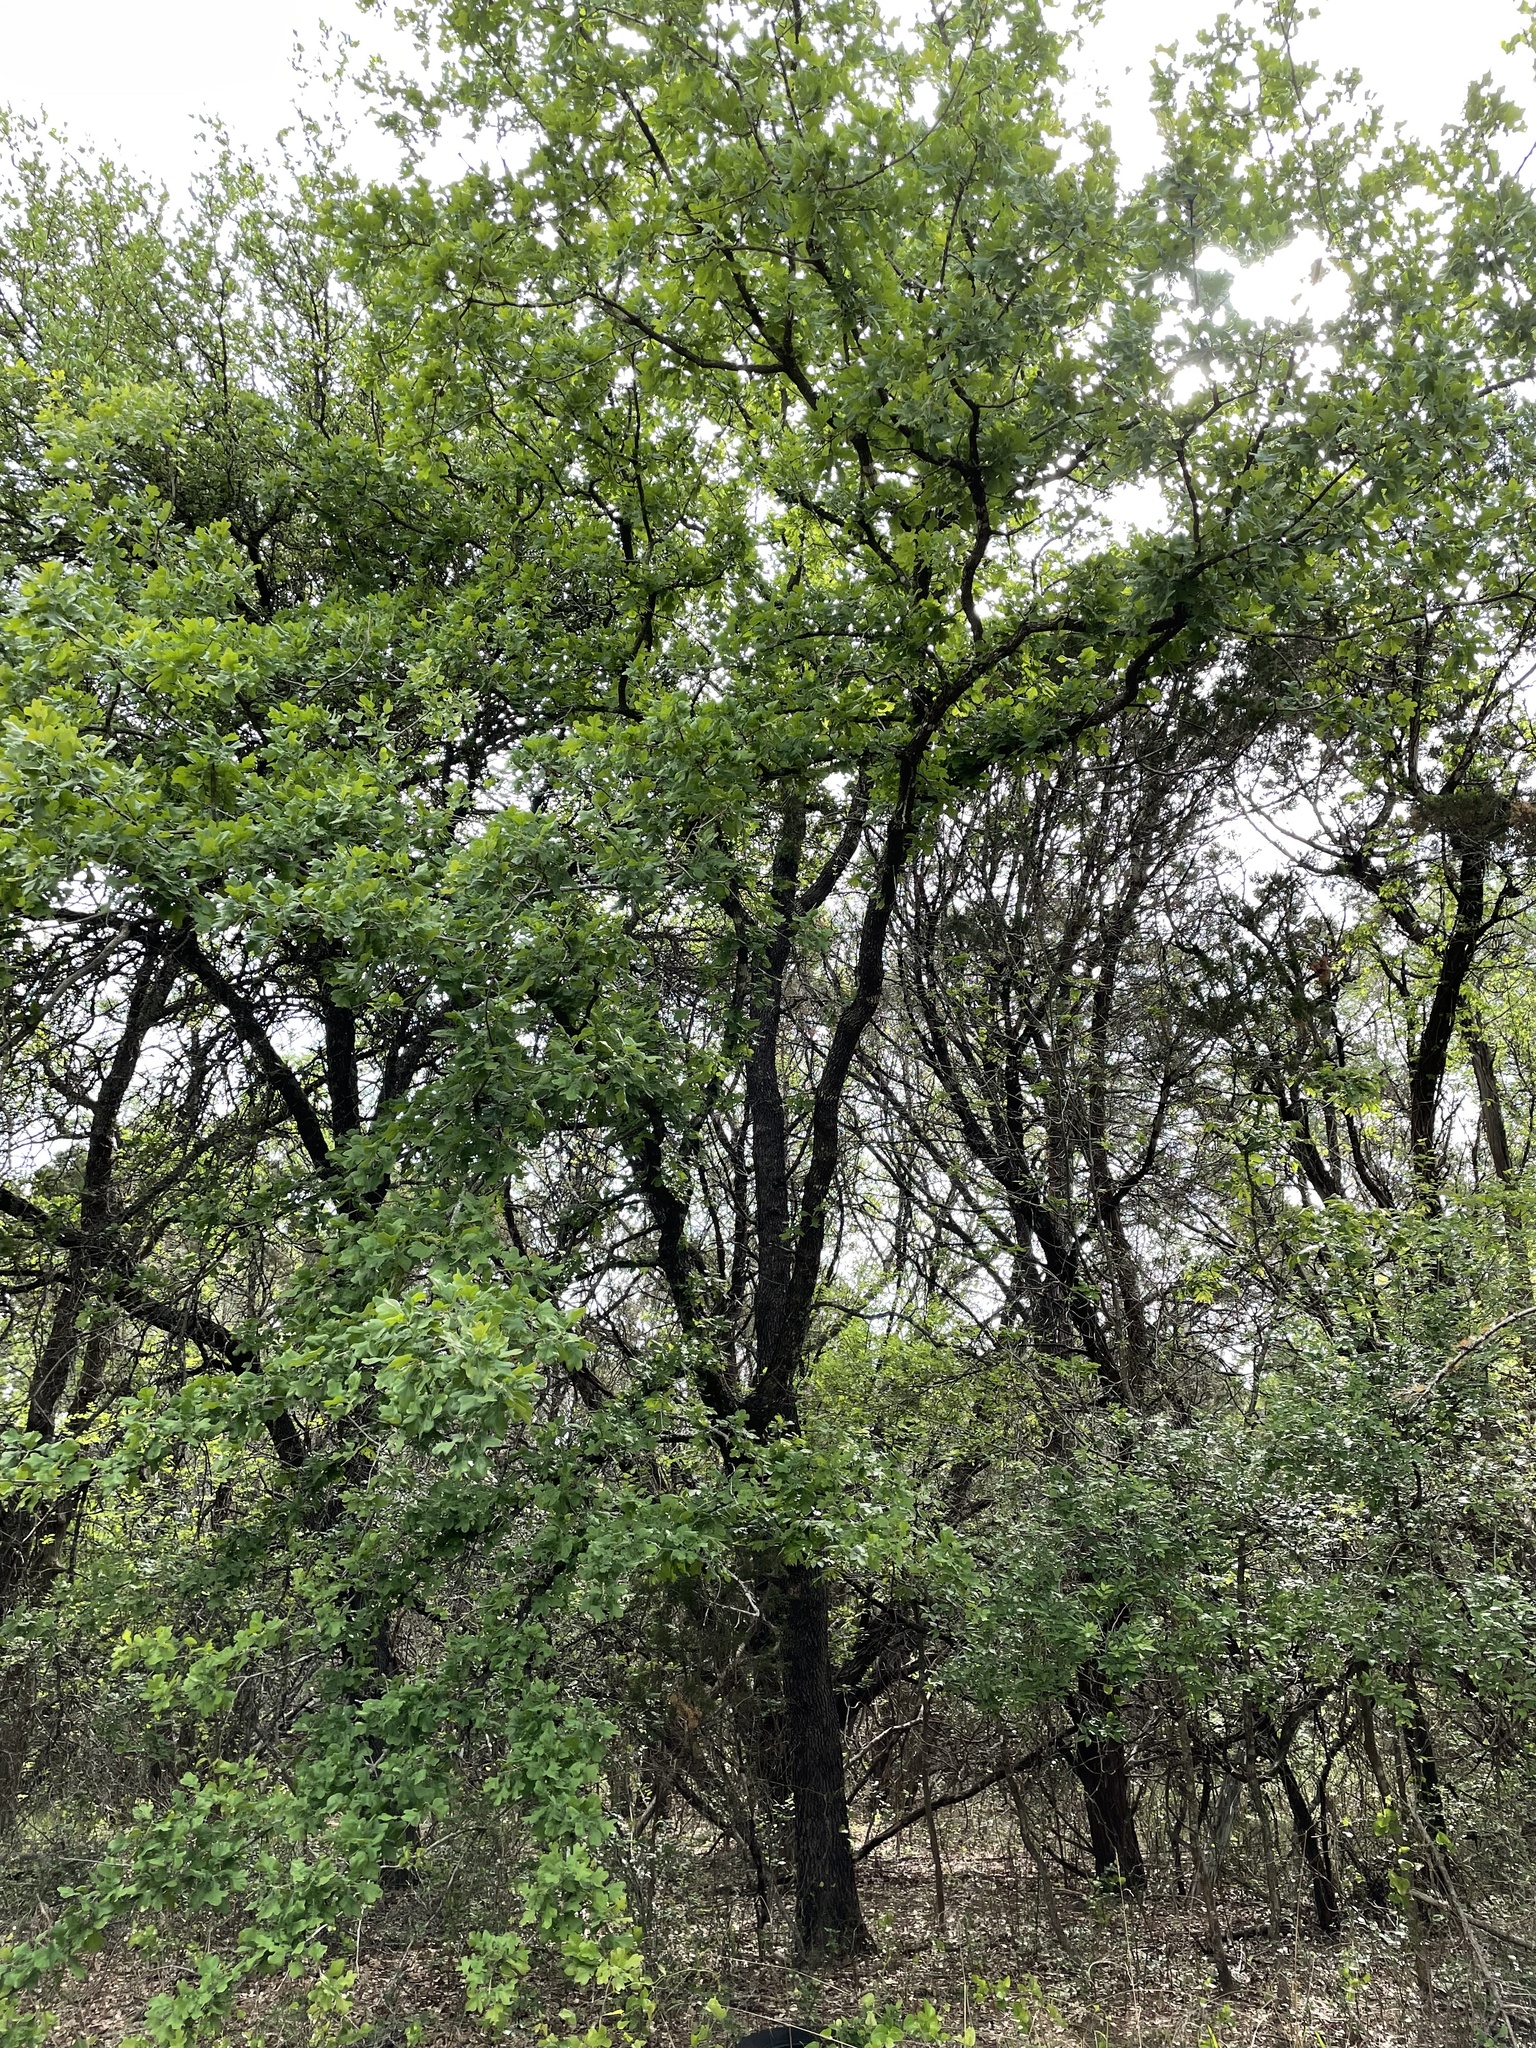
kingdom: Plantae
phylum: Tracheophyta
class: Magnoliopsida
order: Fagales
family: Fagaceae
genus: Quercus
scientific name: Quercus stellata
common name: Post oak
